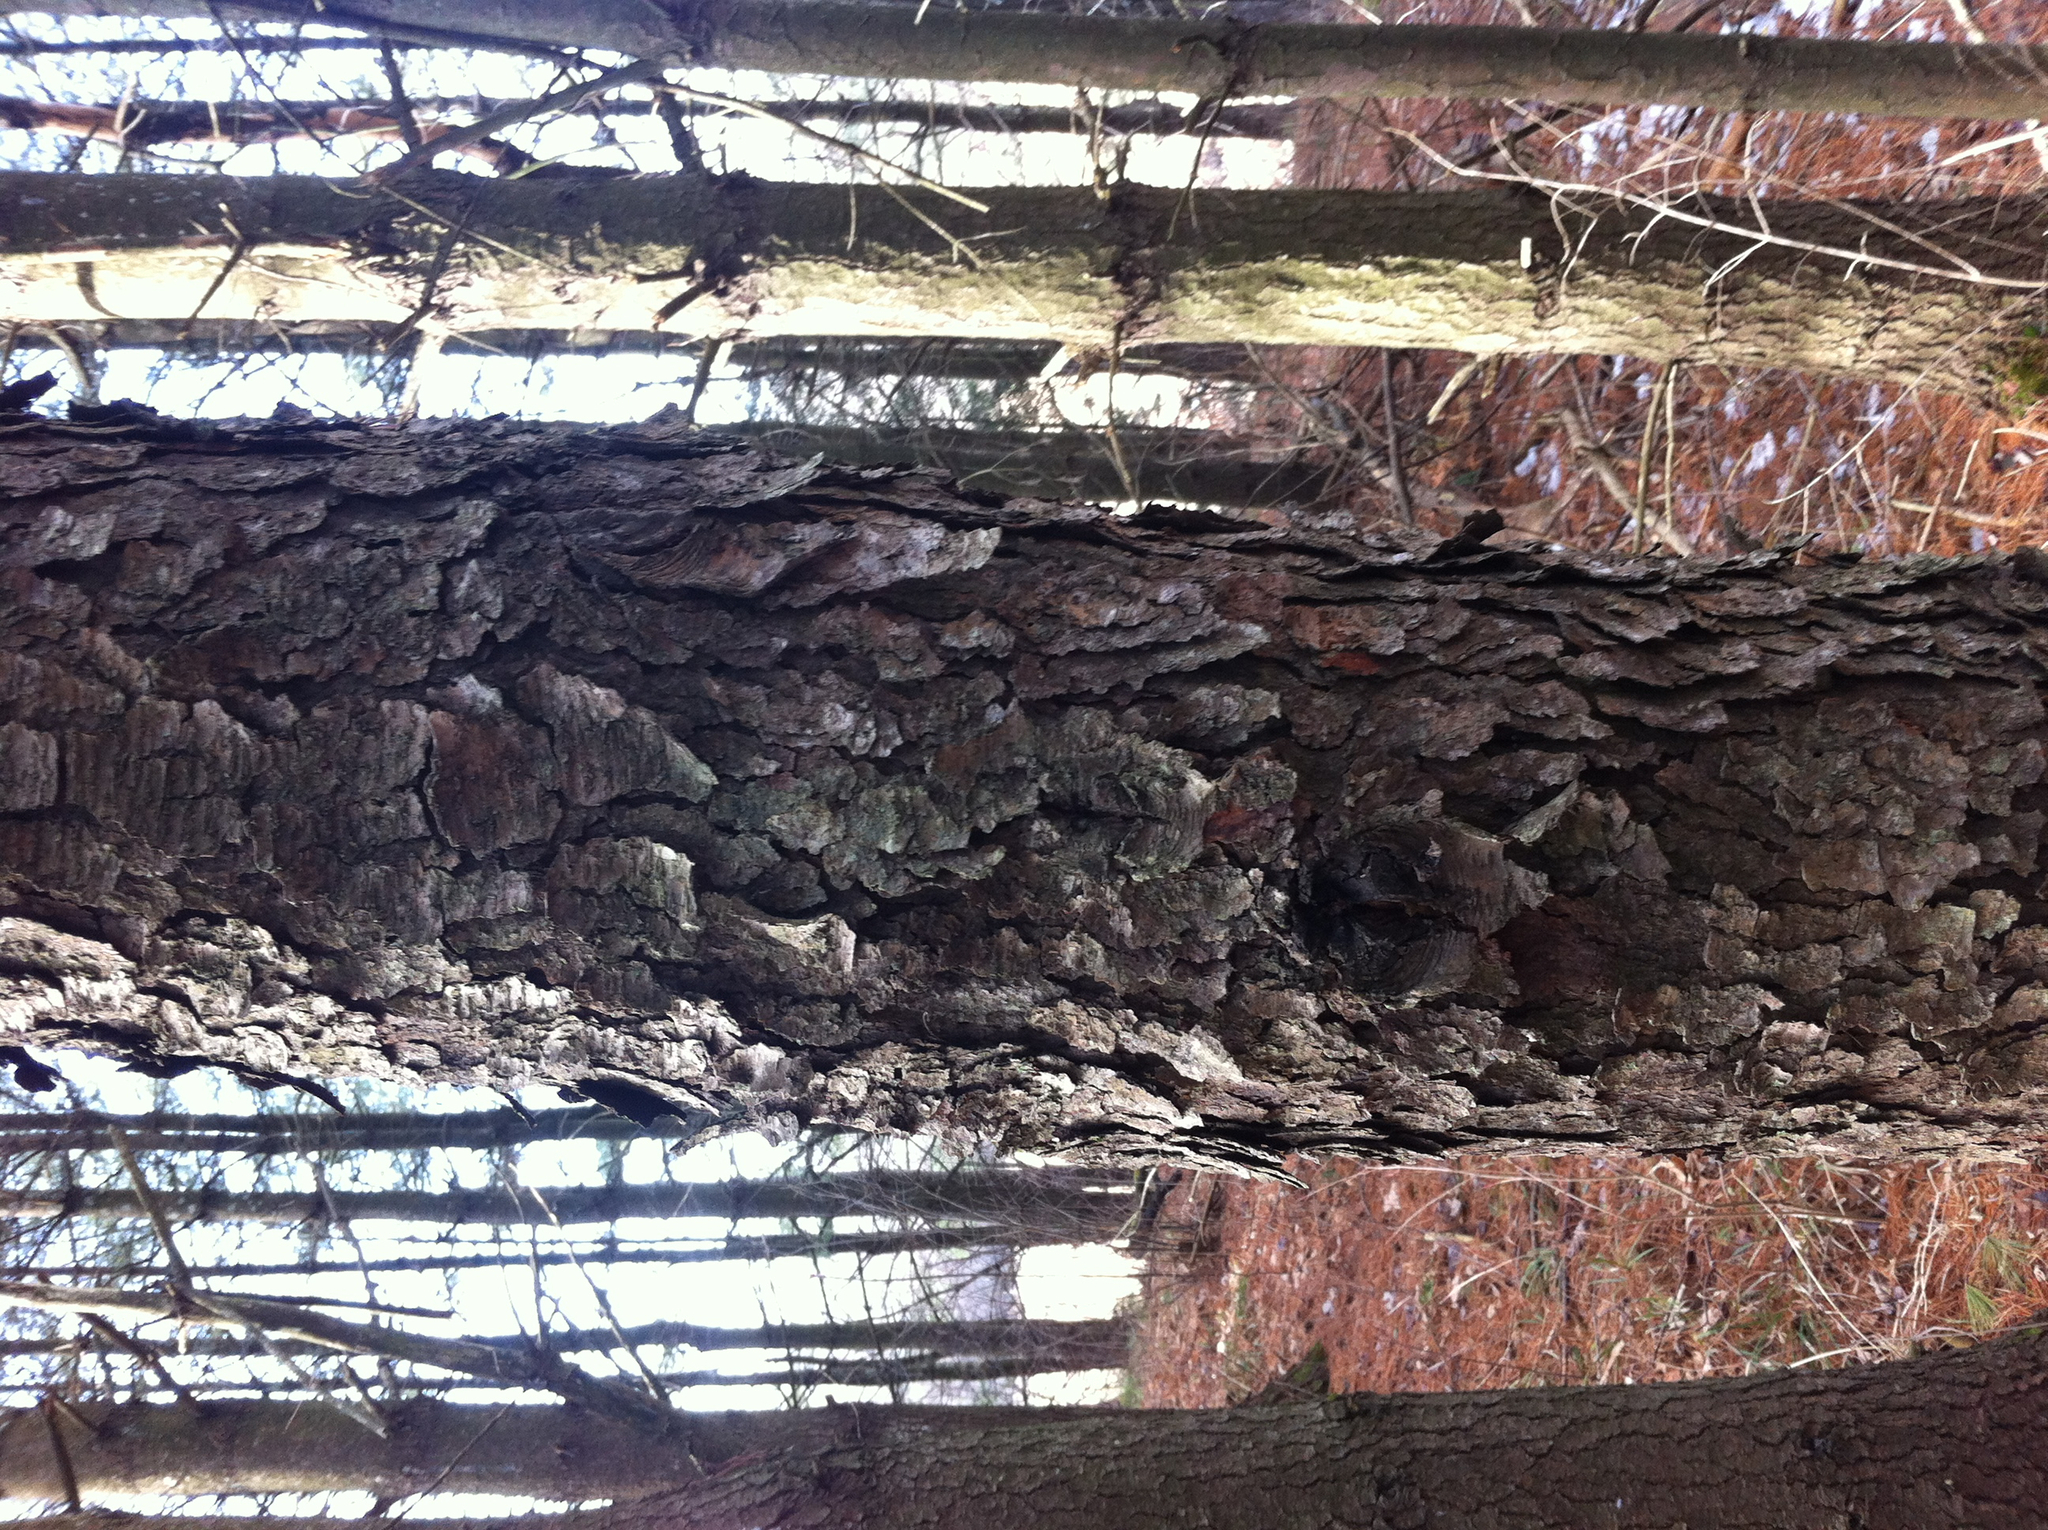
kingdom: Plantae
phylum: Tracheophyta
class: Magnoliopsida
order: Rosales
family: Rosaceae
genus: Prunus
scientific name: Prunus serotina
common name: Black cherry
